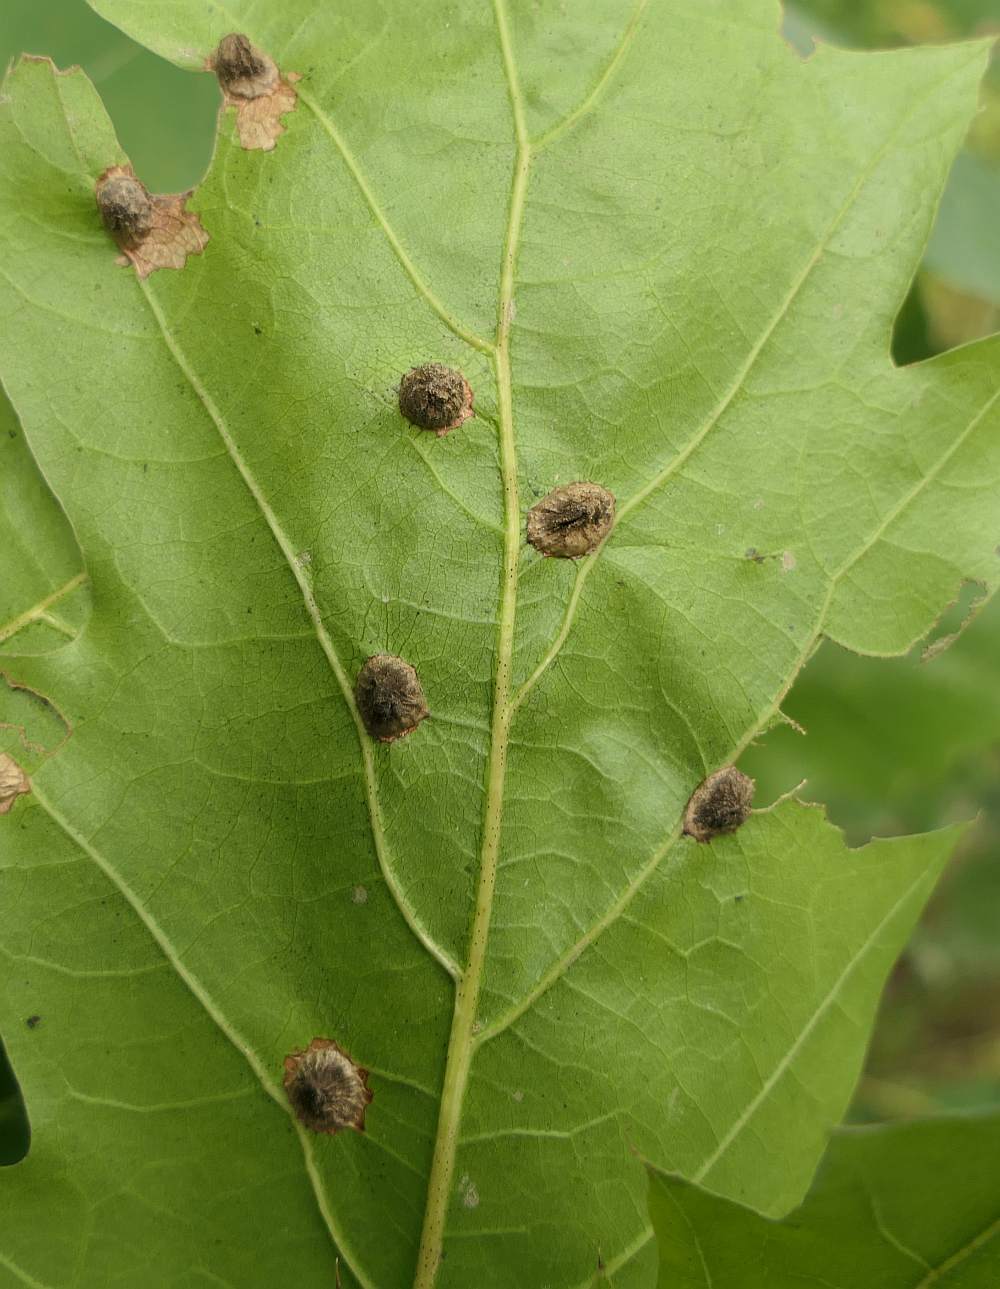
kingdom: Animalia
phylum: Arthropoda
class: Insecta
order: Hymenoptera
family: Cynipidae
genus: Dryocosmus
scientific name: Dryocosmus
